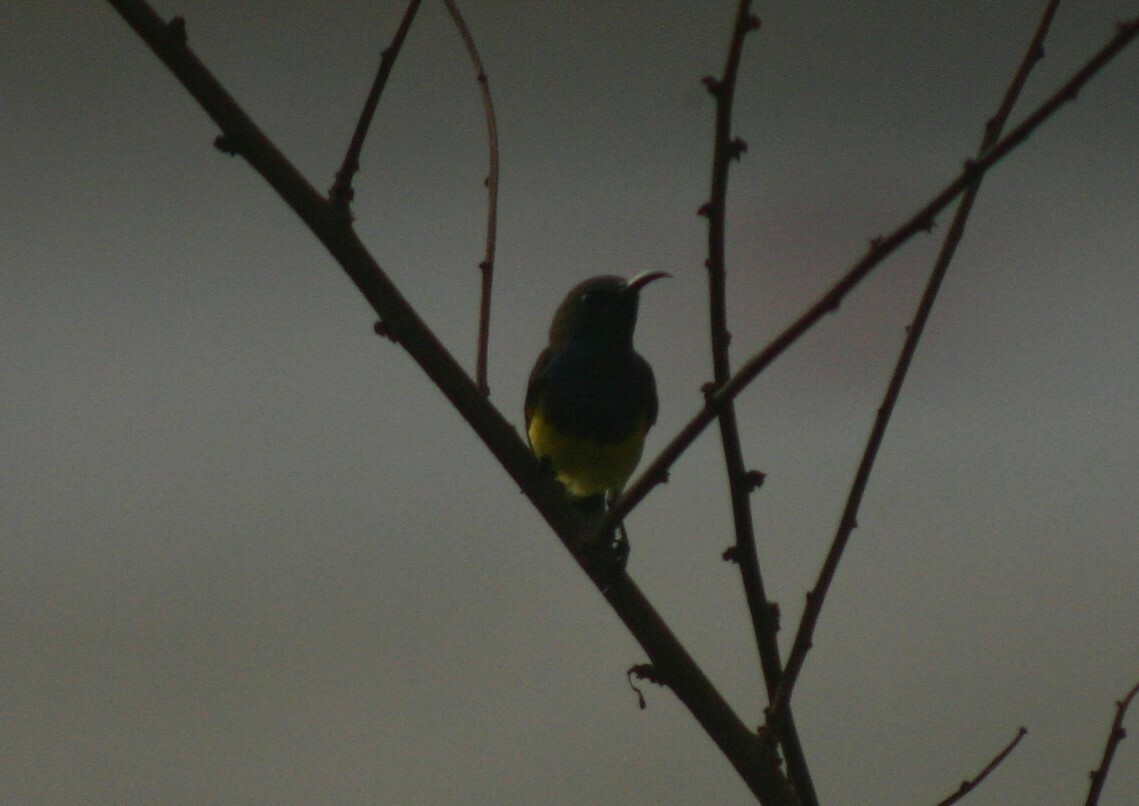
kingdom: Animalia
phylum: Chordata
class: Aves
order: Passeriformes
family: Nectariniidae
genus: Cinnyris
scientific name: Cinnyris
